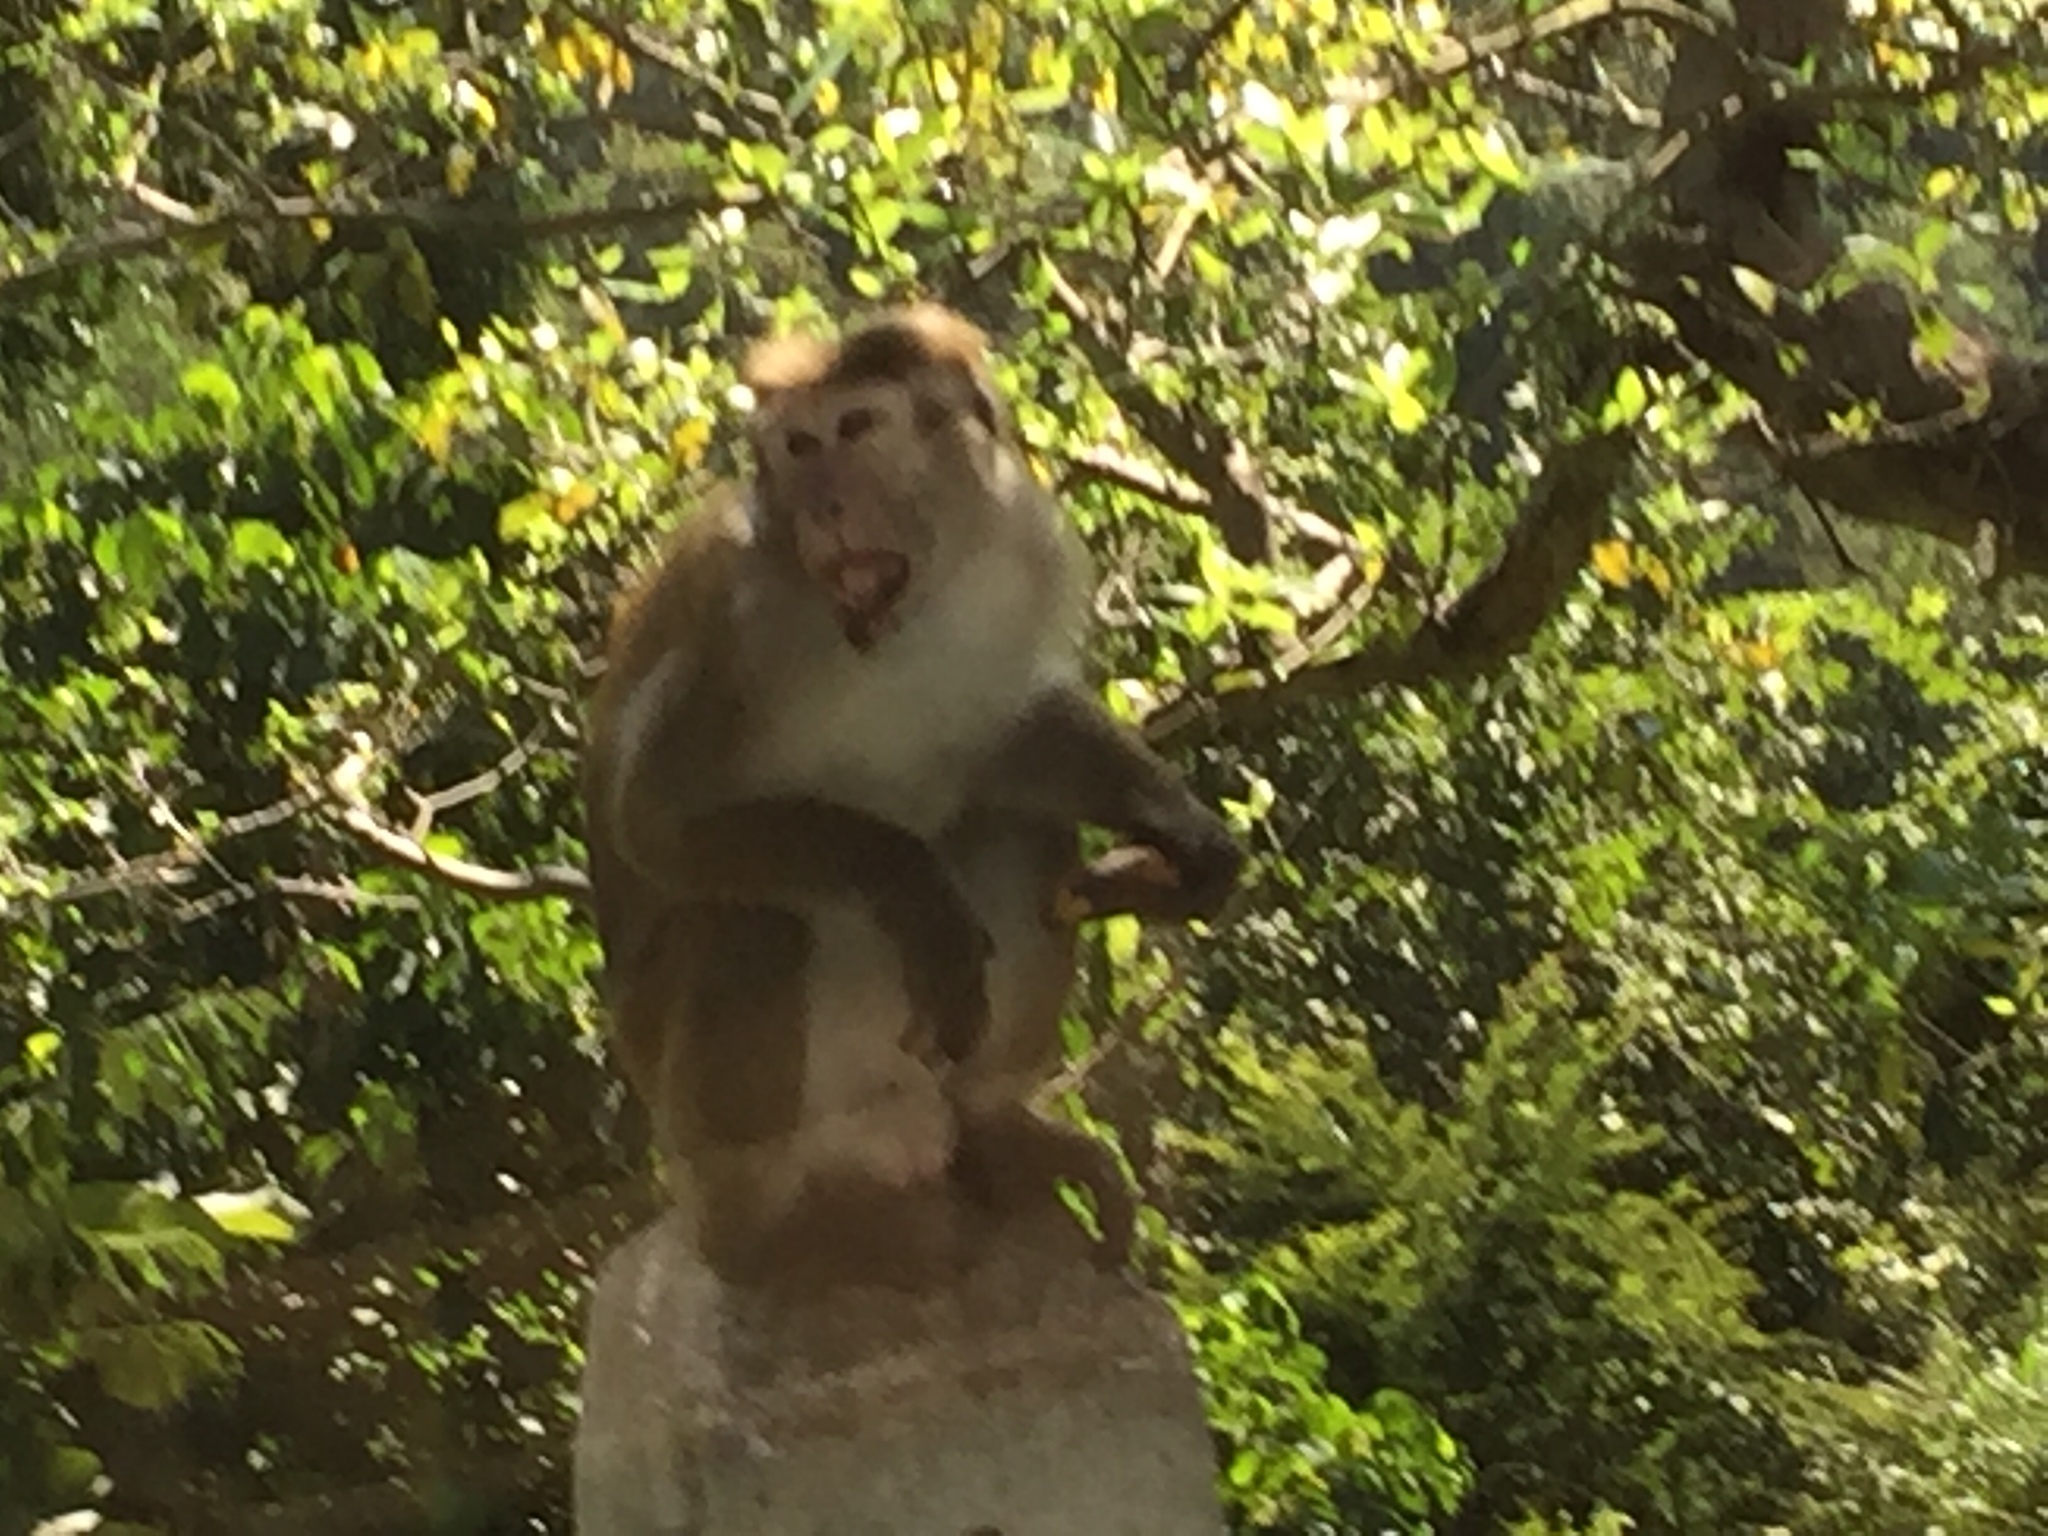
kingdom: Animalia
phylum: Chordata
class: Mammalia
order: Primates
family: Cercopithecidae
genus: Macaca
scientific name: Macaca sinica
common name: Toque macaque
